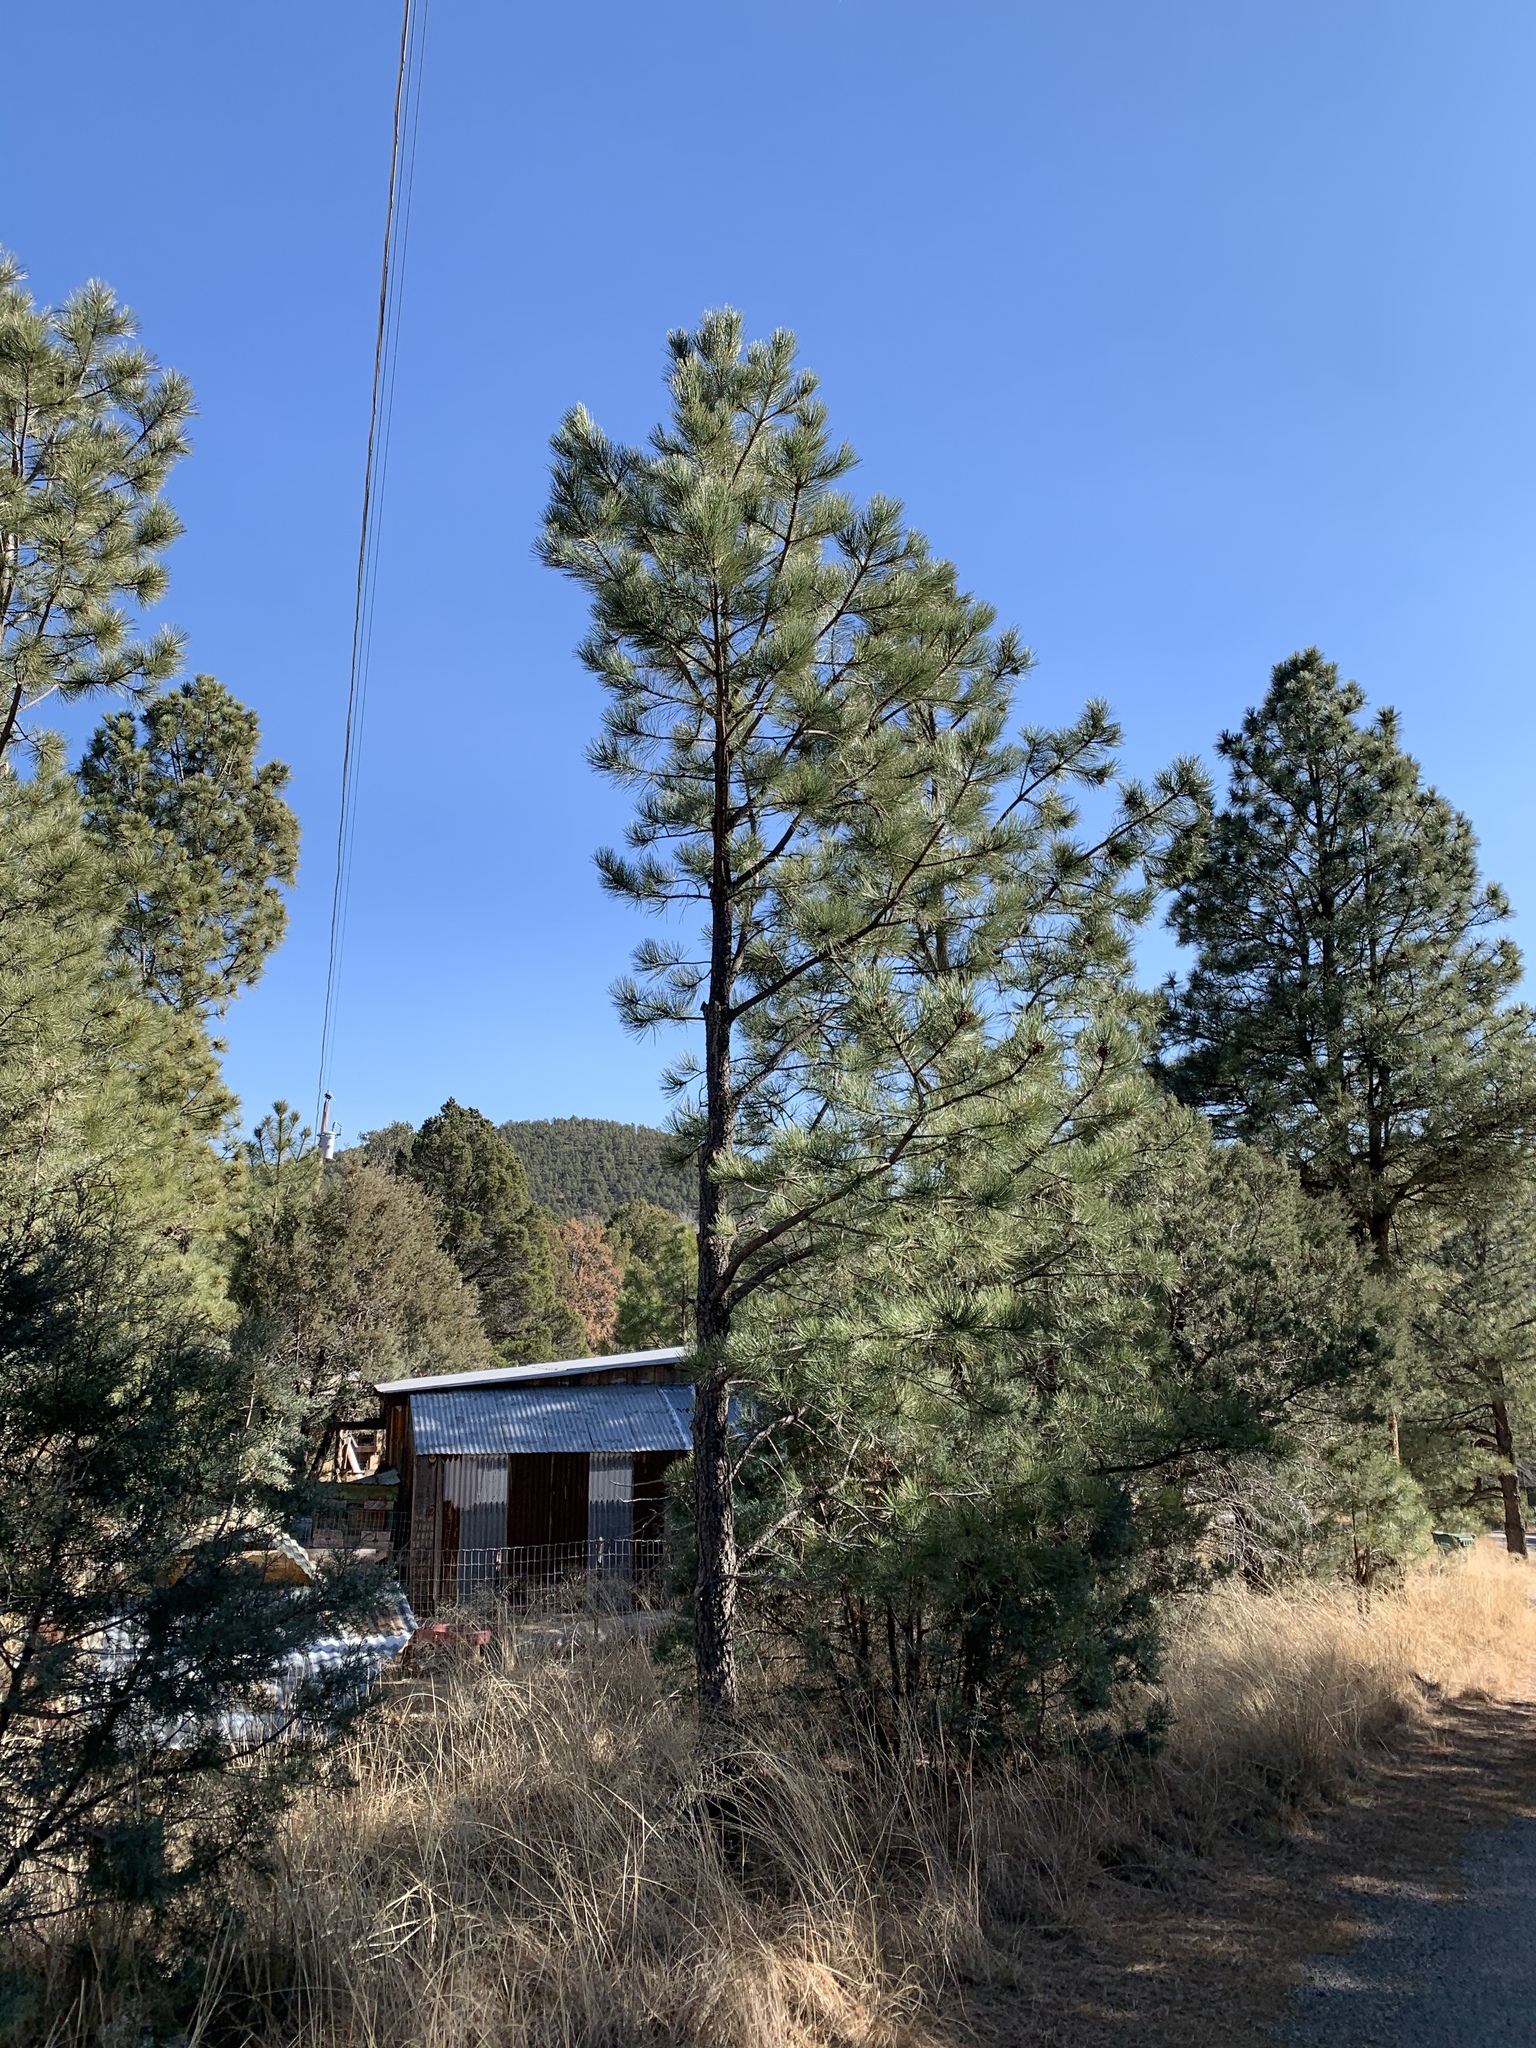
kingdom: Plantae
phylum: Tracheophyta
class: Pinopsida
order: Pinales
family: Pinaceae
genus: Pinus
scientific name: Pinus ponderosa
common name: Western yellow-pine
